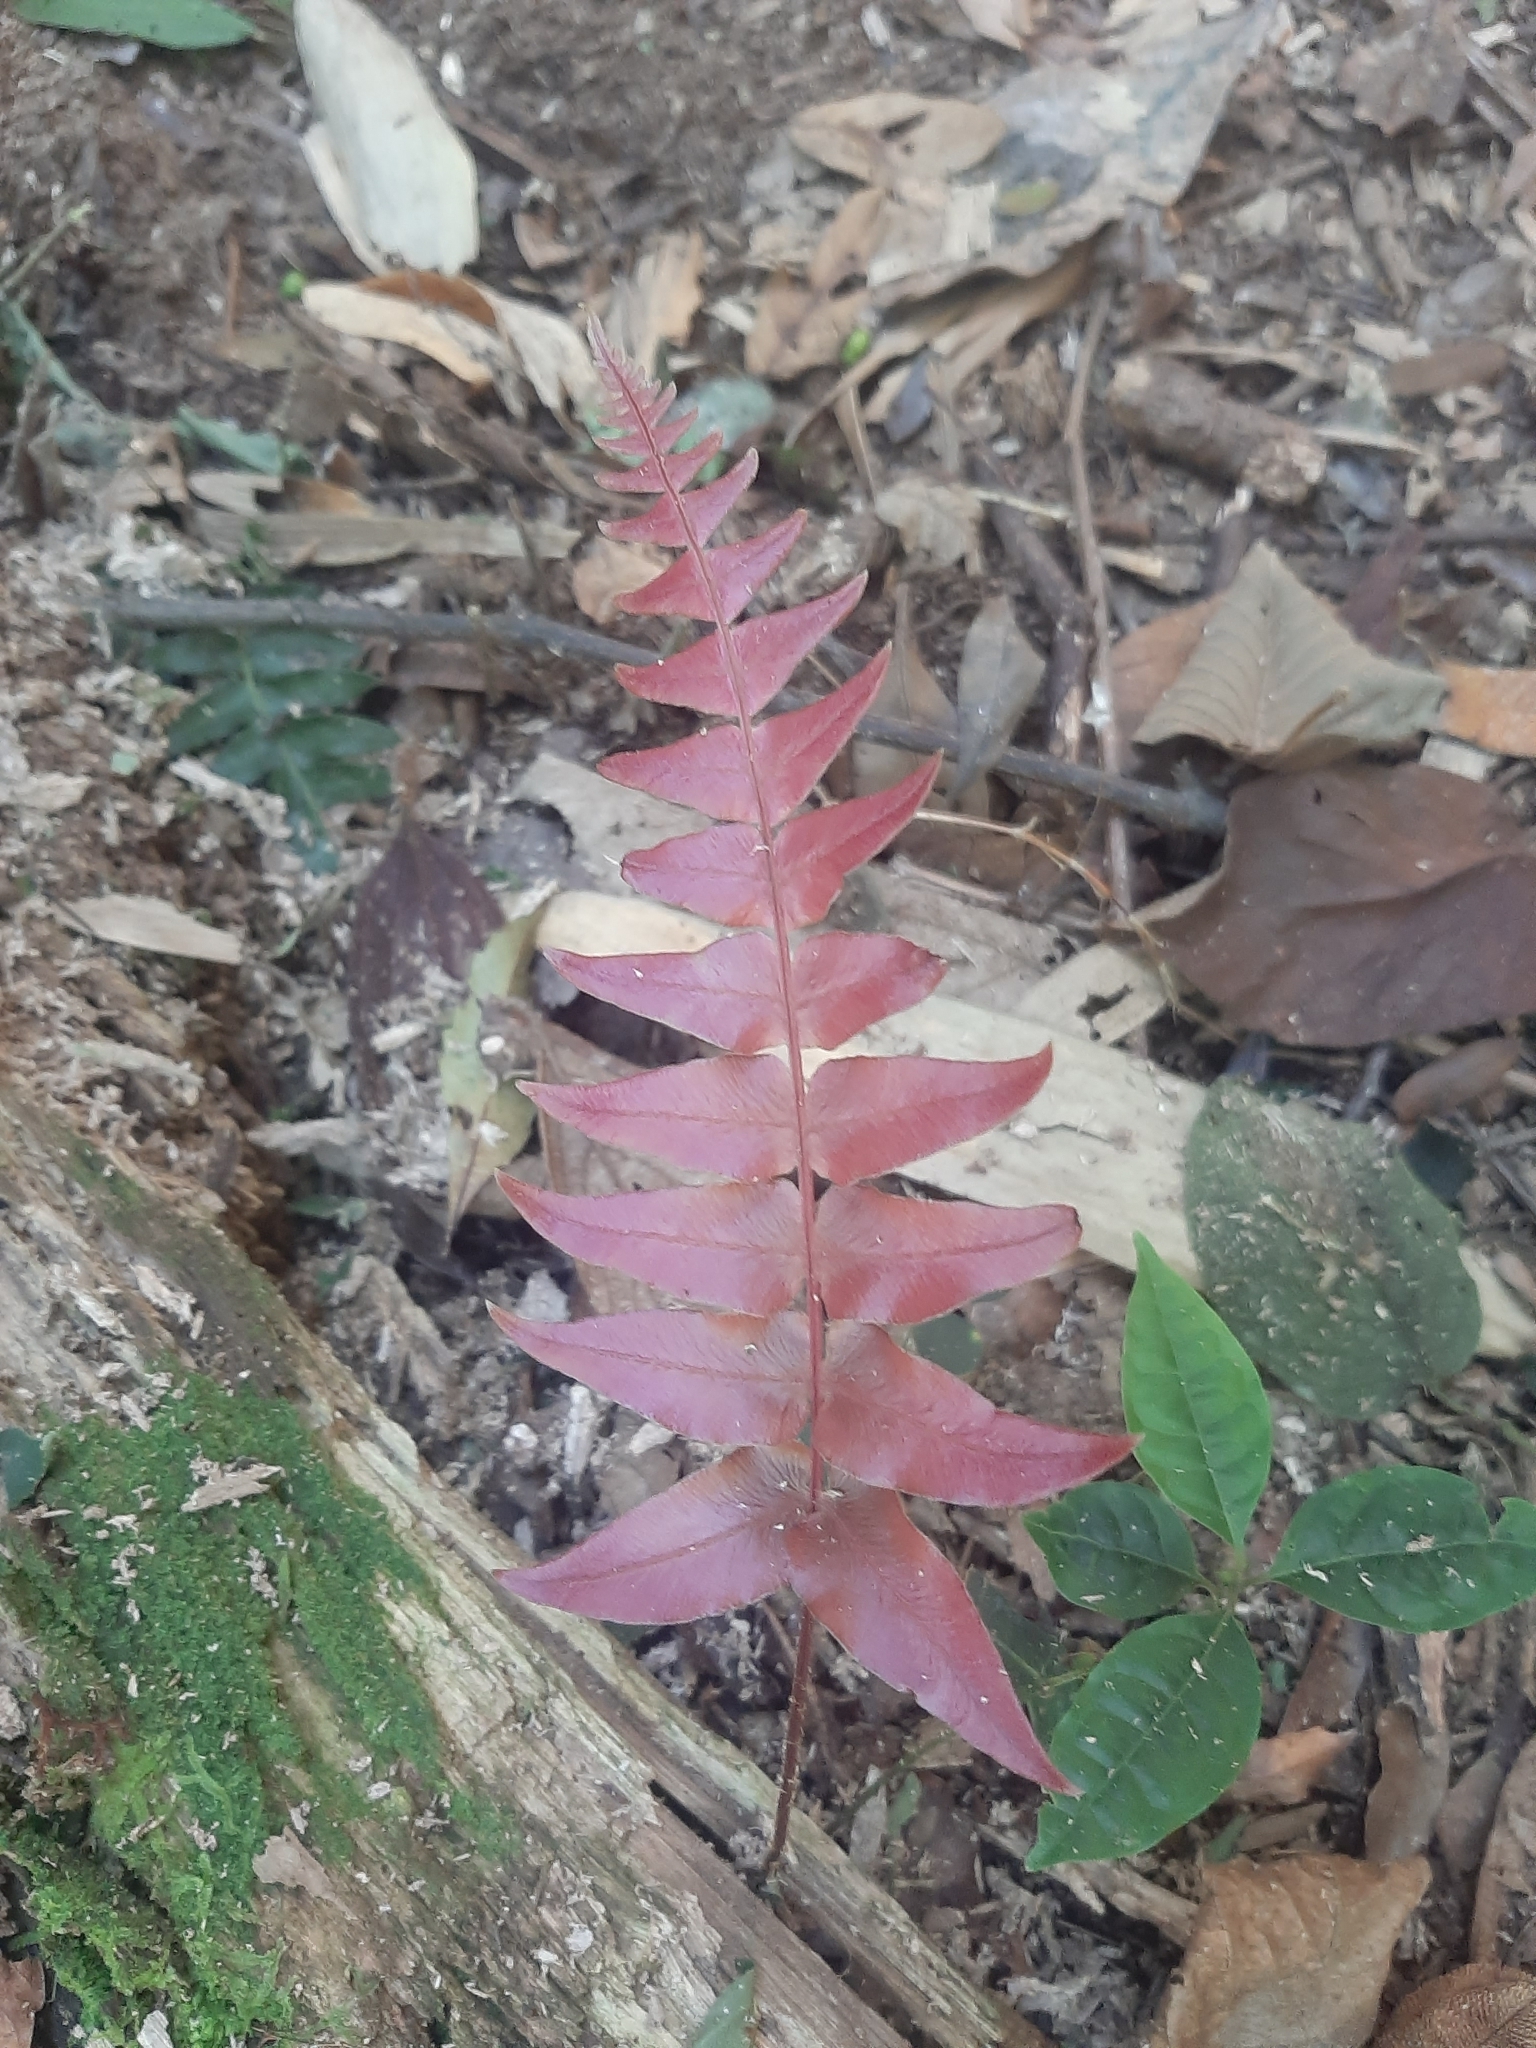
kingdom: Plantae
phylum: Tracheophyta
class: Polypodiopsida
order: Polypodiales
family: Blechnaceae
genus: Blechnum
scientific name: Blechnum occidentale
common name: Hammock fern
